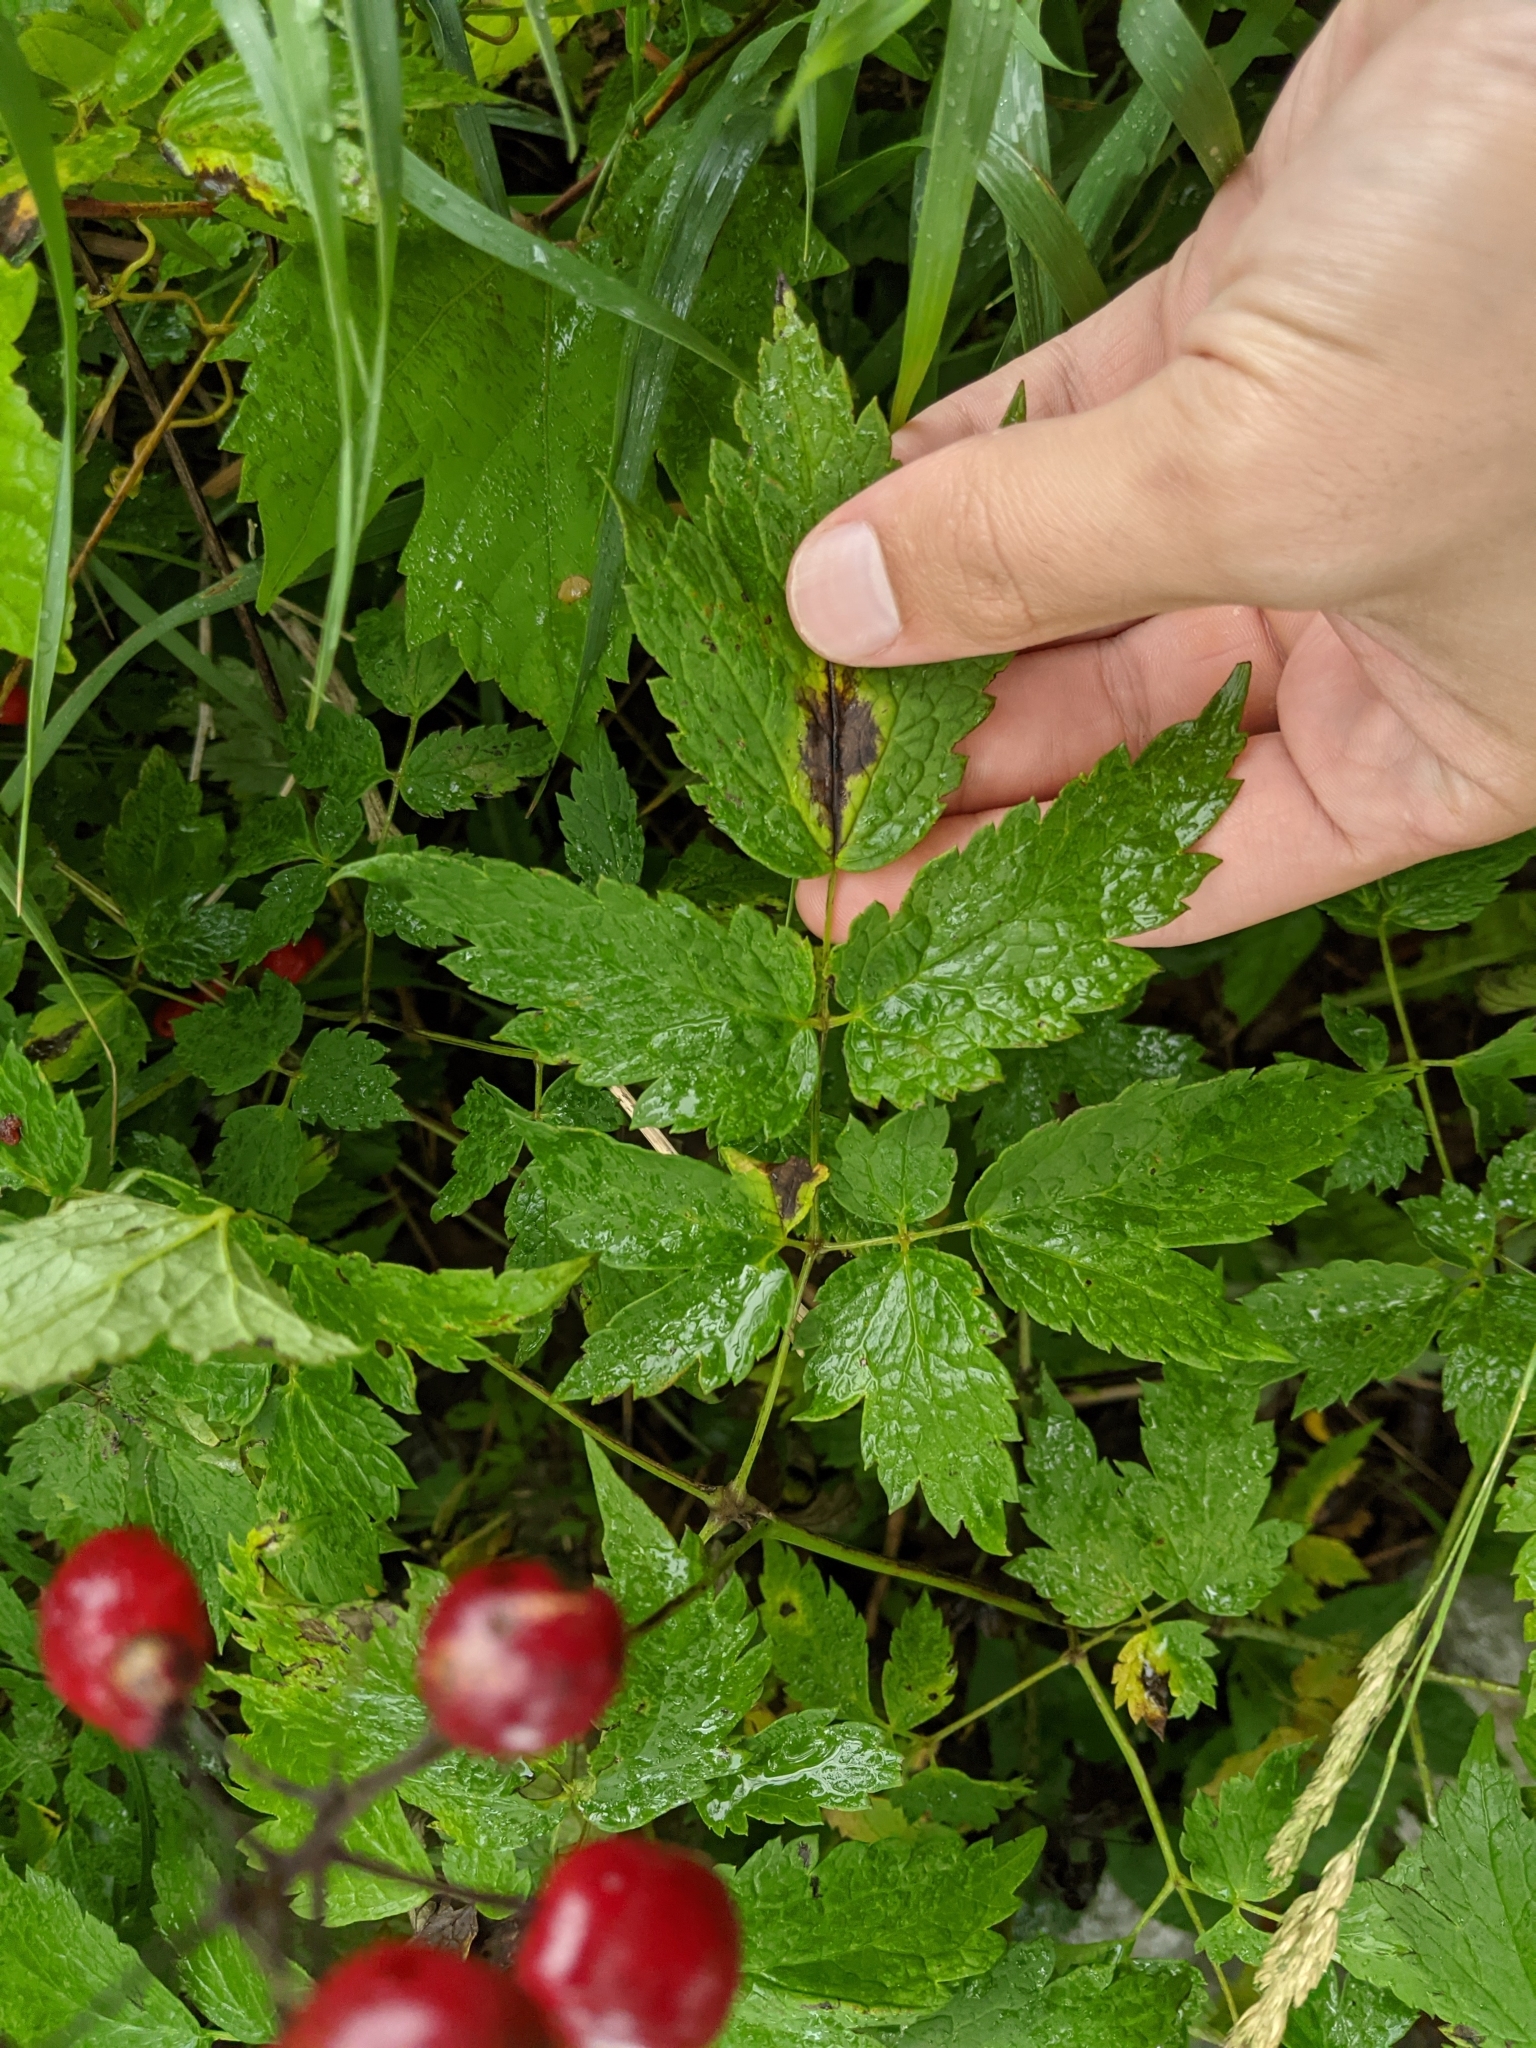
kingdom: Plantae
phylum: Tracheophyta
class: Magnoliopsida
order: Ranunculales
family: Ranunculaceae
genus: Actaea
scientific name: Actaea rubra
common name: Red baneberry
